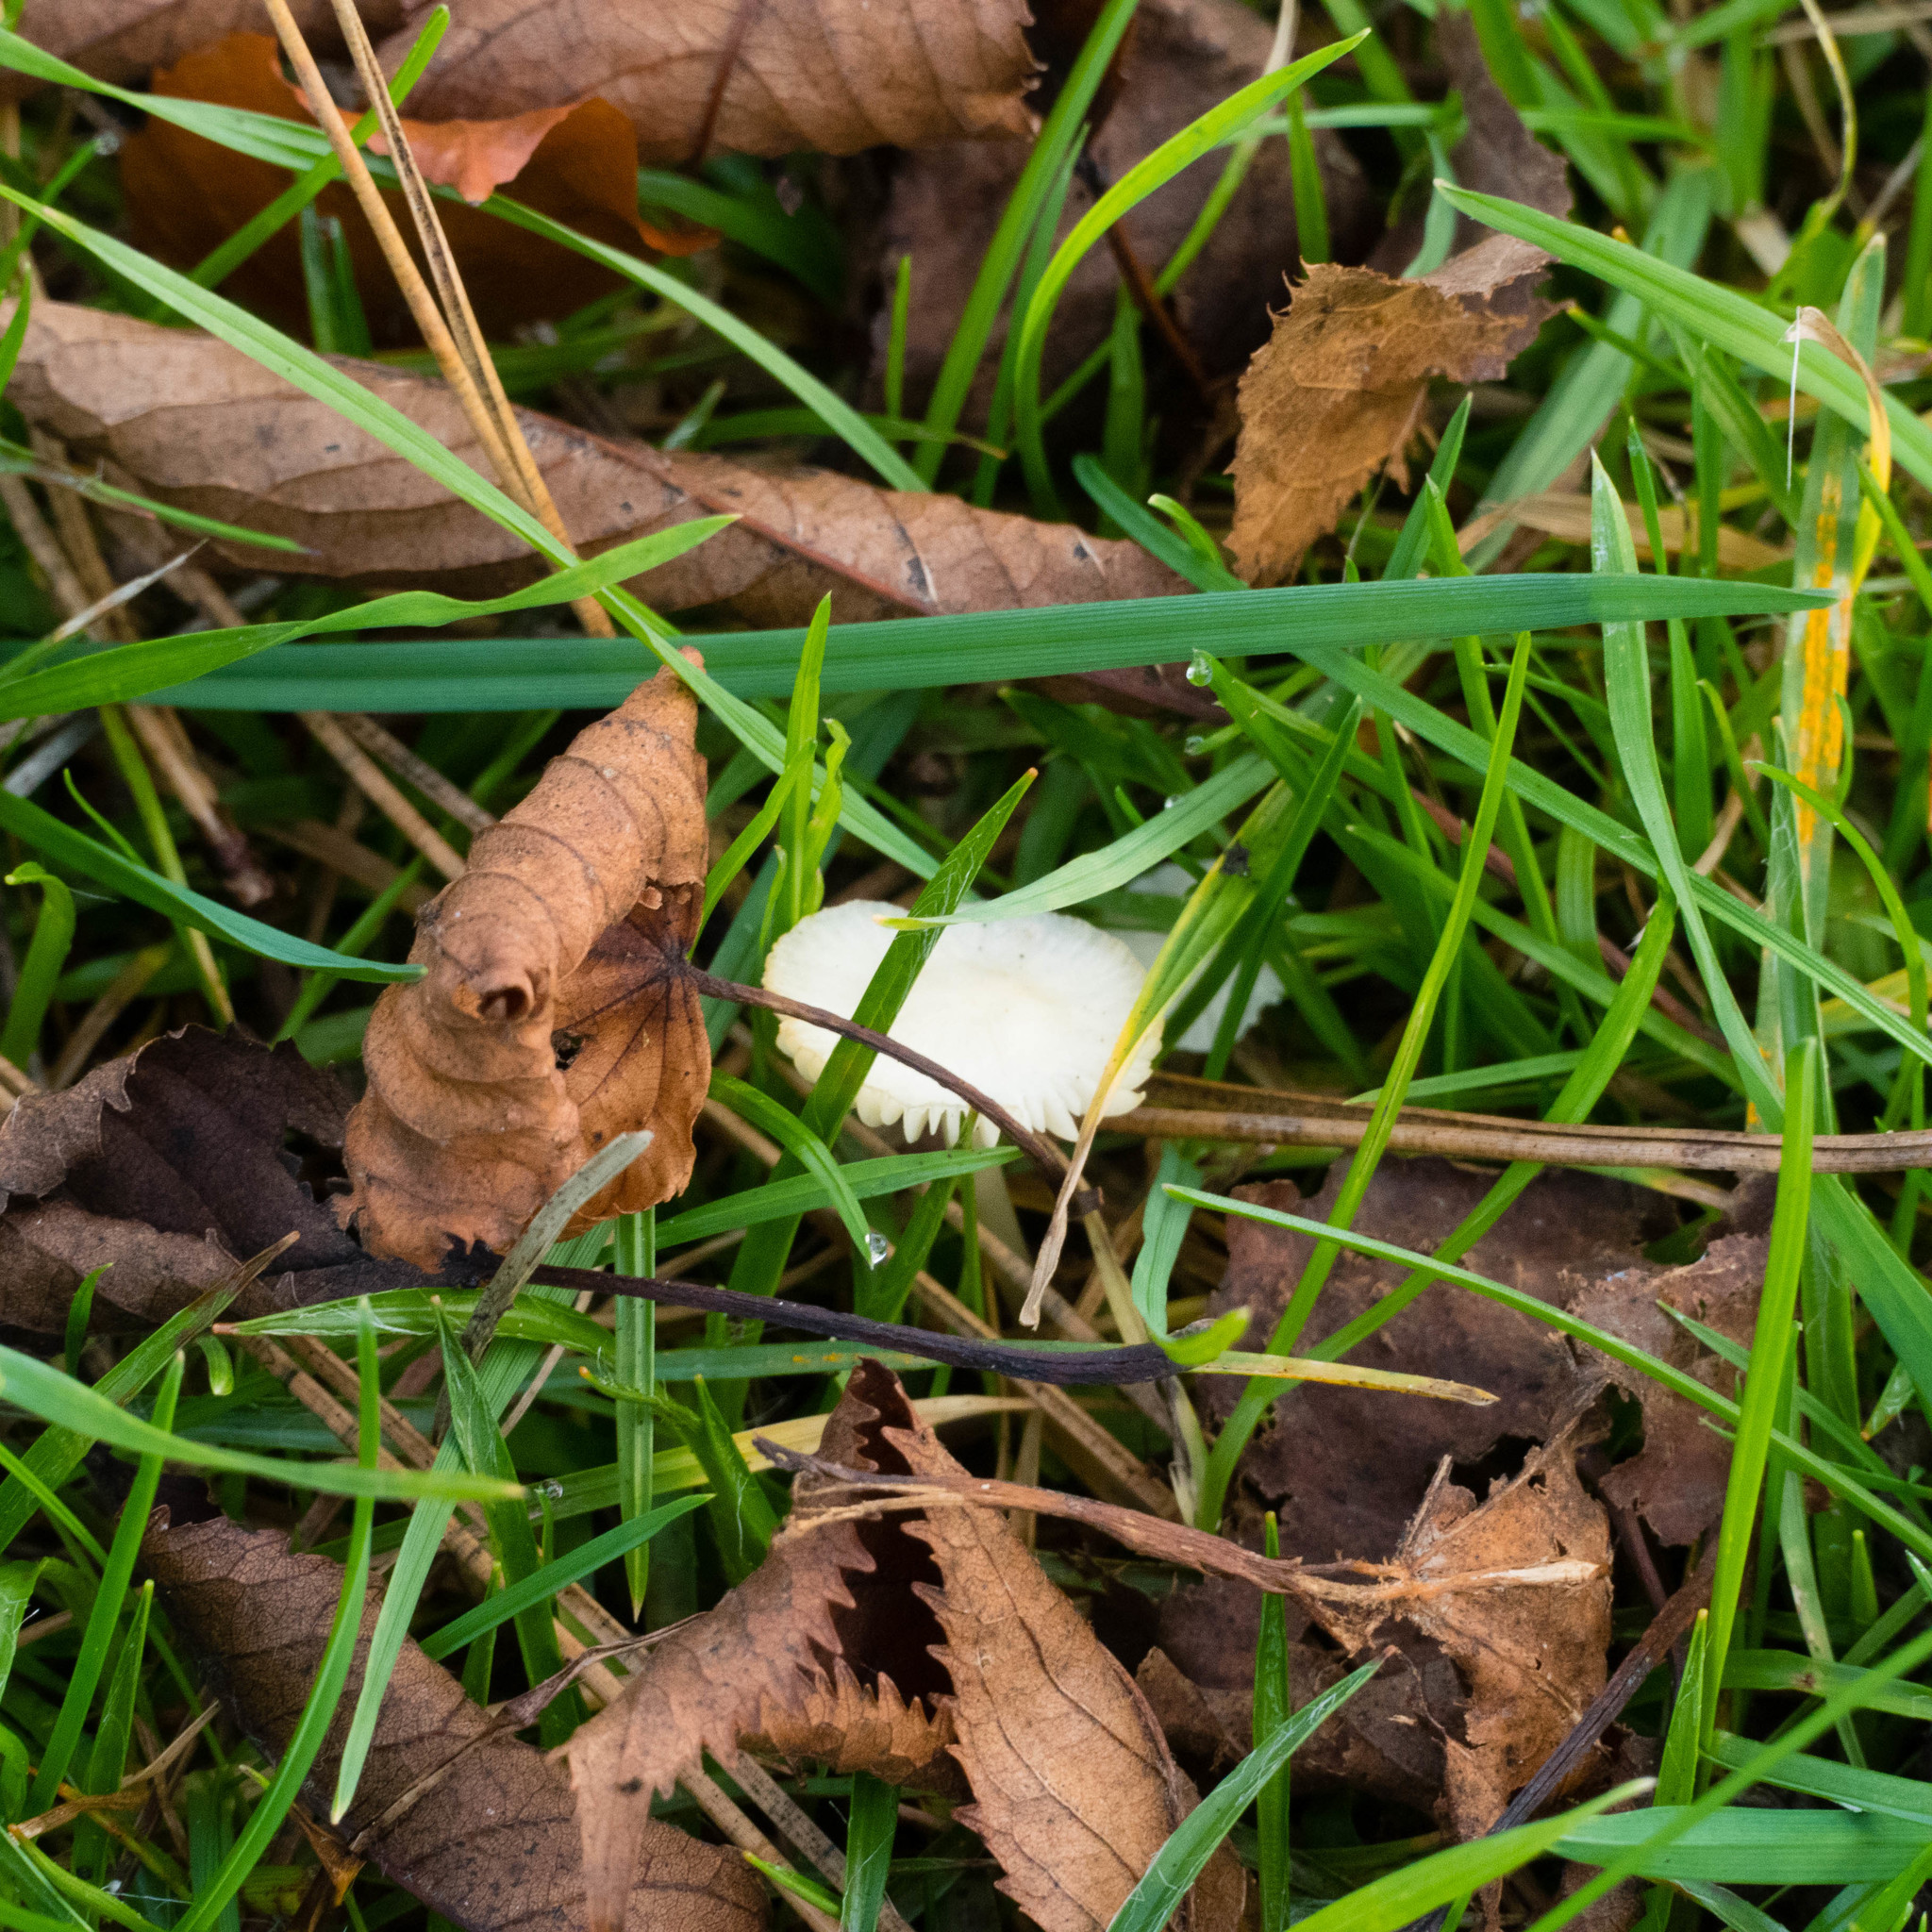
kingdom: Fungi
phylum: Basidiomycota
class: Agaricomycetes
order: Agaricales
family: Hygrophoraceae
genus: Cuphophyllus
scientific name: Cuphophyllus virgineus
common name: Snowy waxcap
